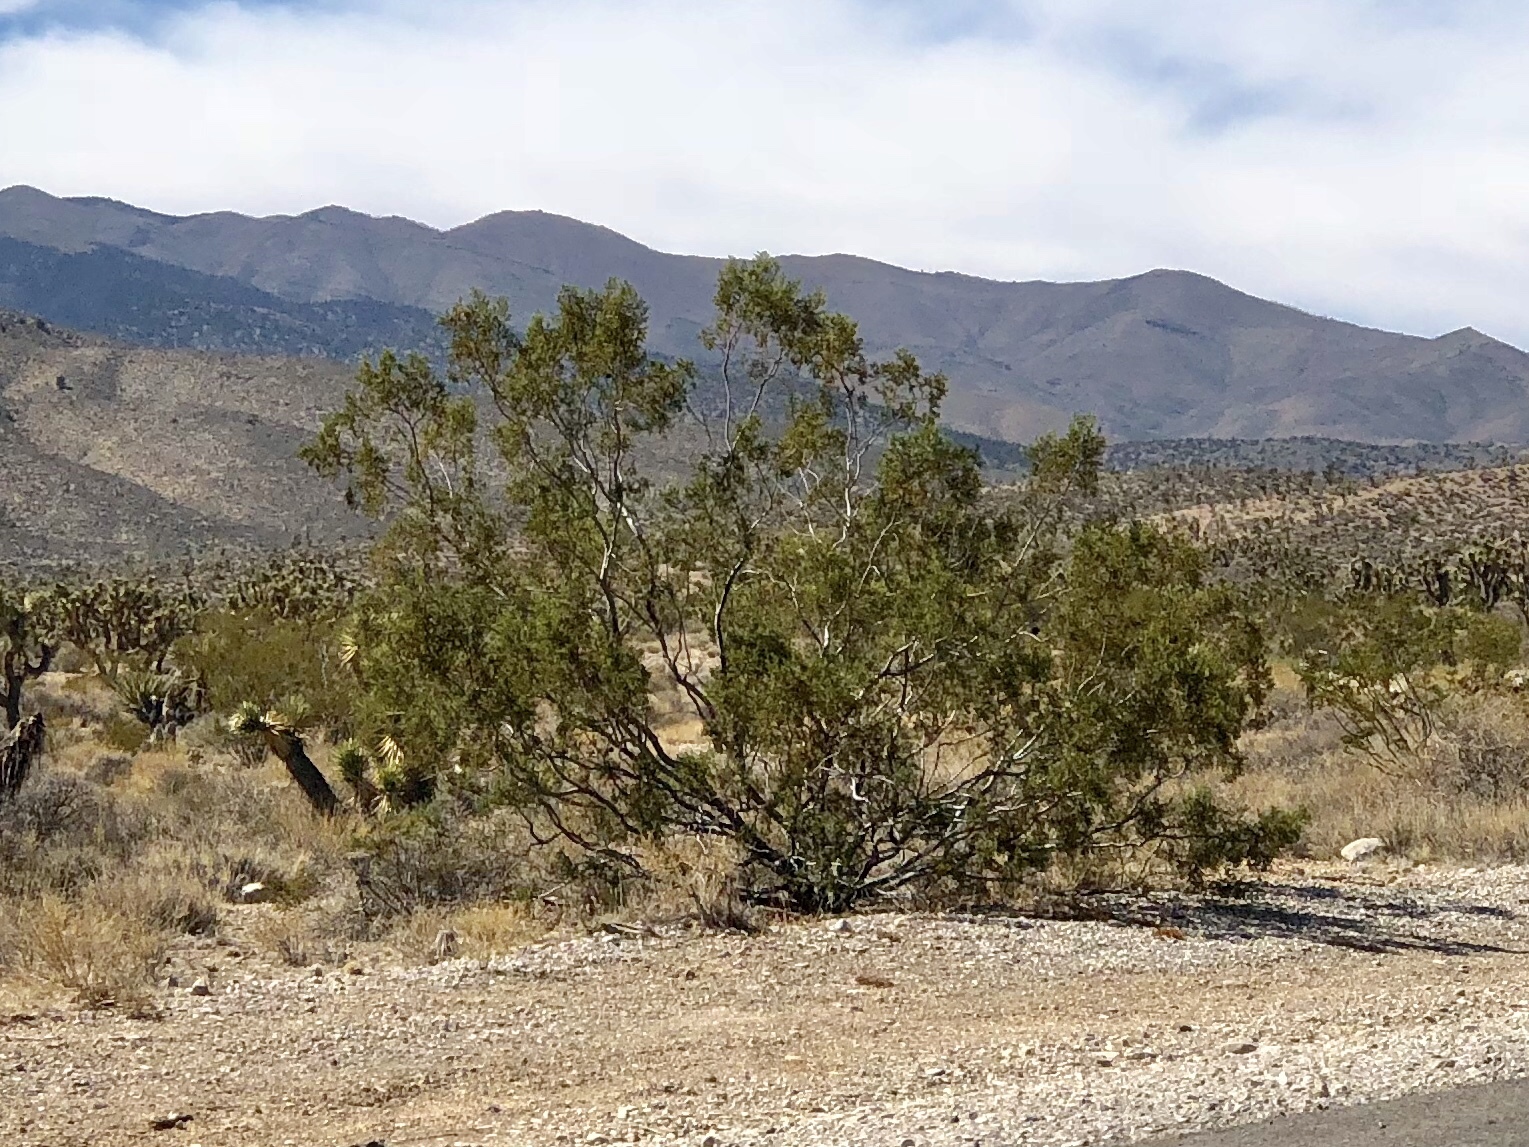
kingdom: Plantae
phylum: Tracheophyta
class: Magnoliopsida
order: Zygophyllales
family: Zygophyllaceae
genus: Larrea
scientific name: Larrea tridentata
